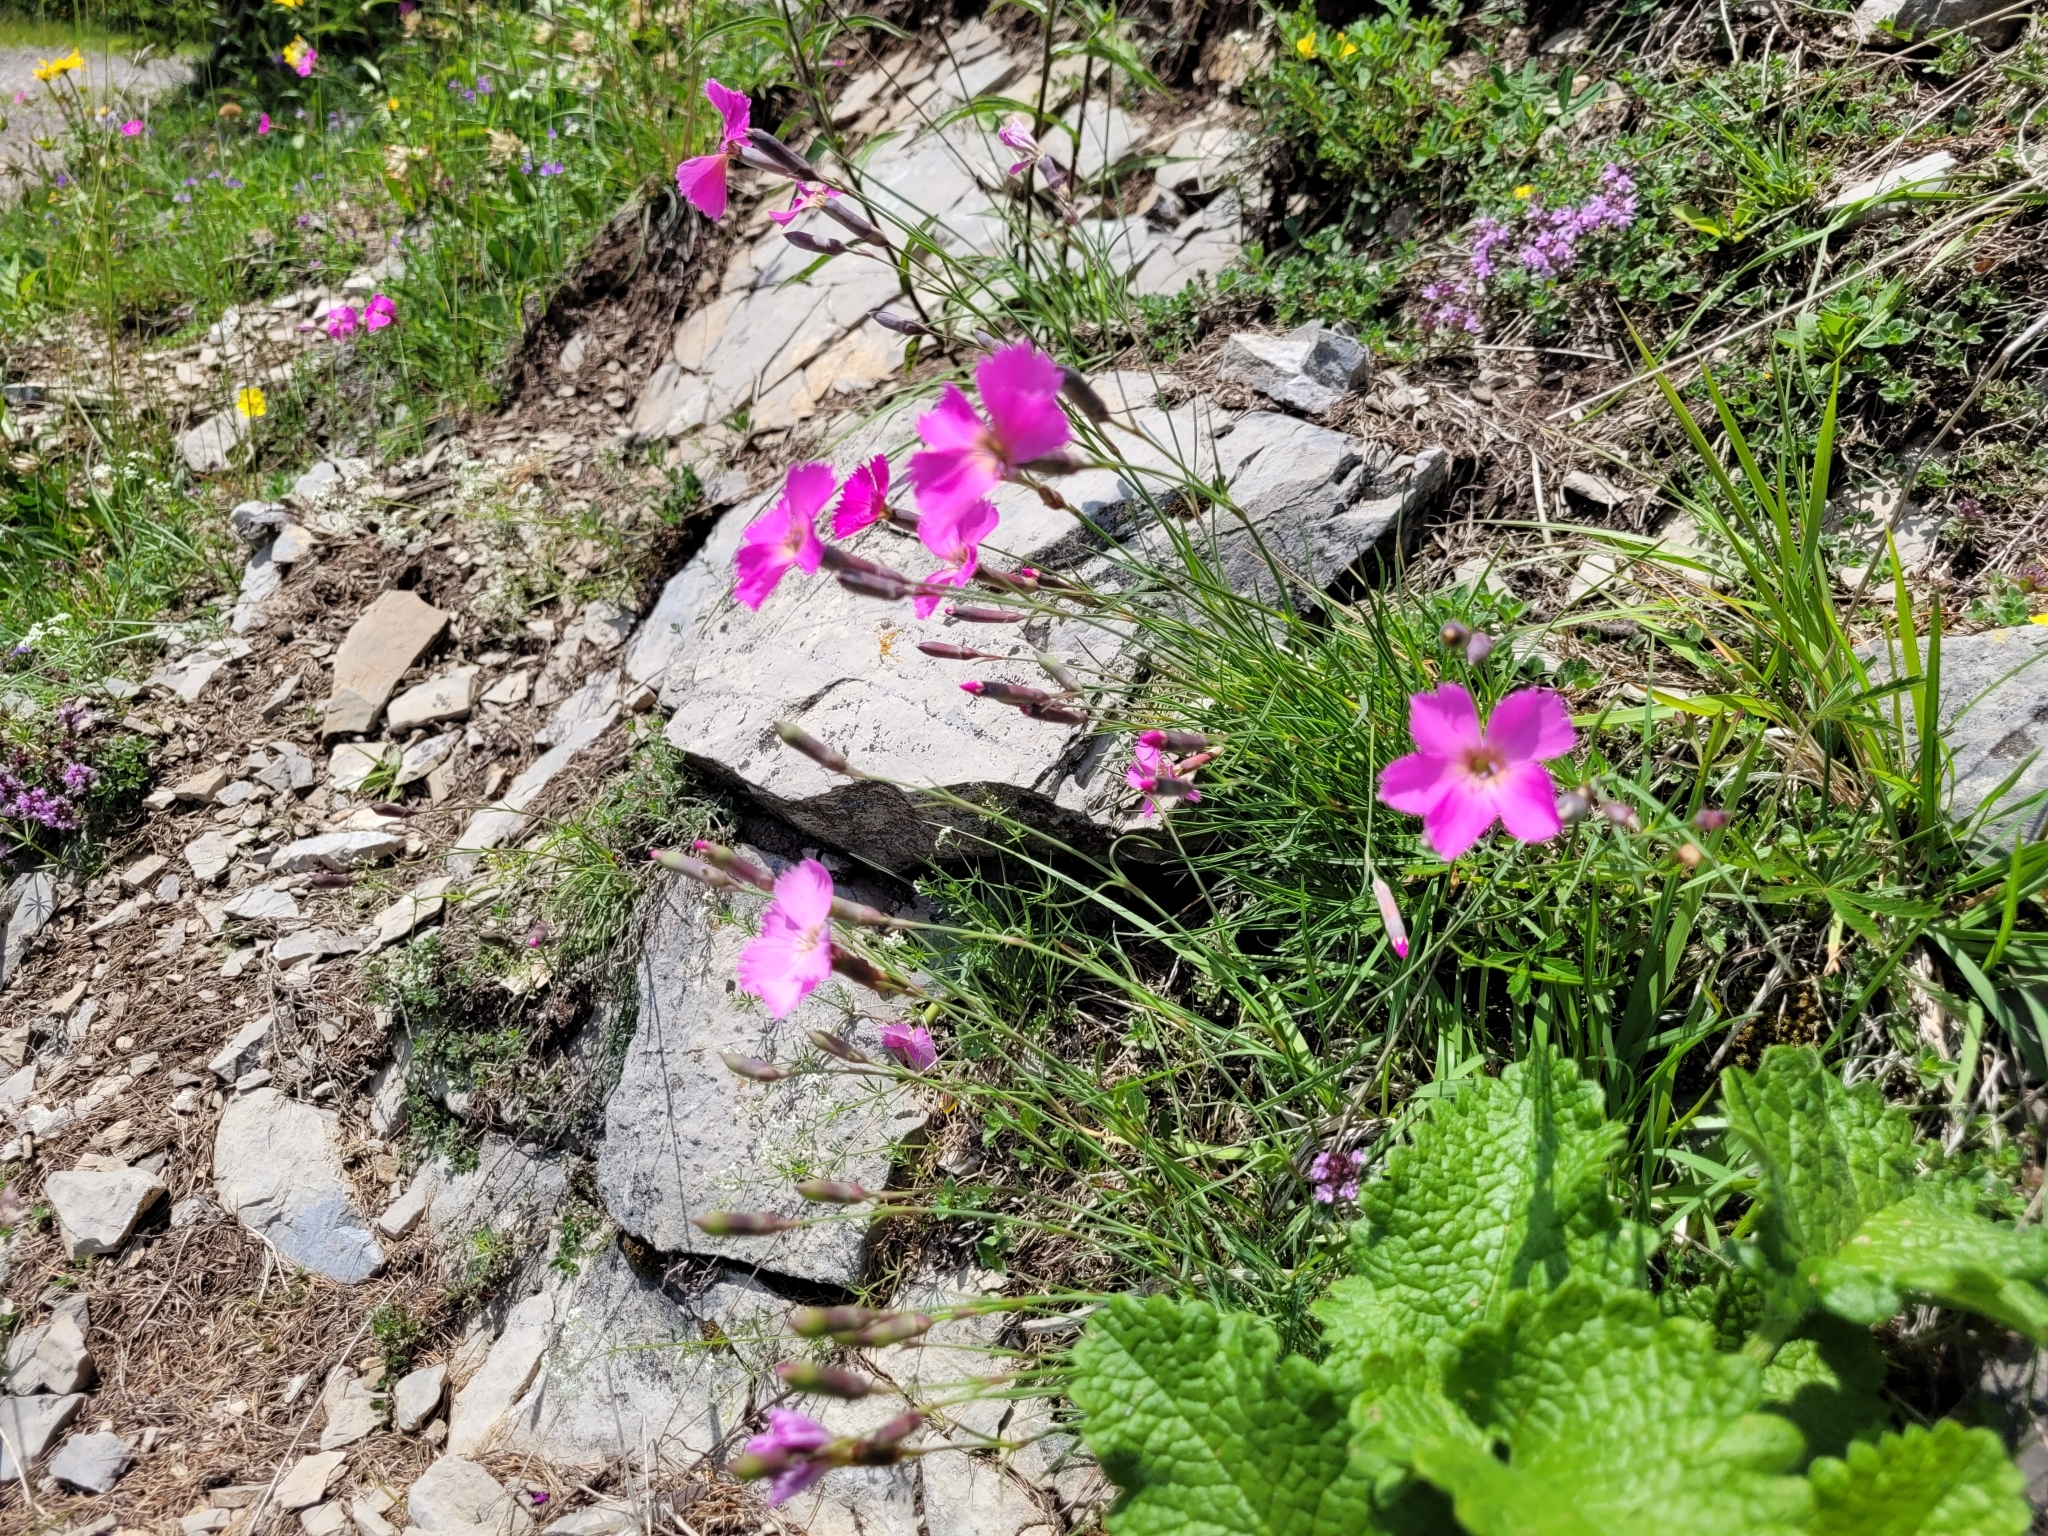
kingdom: Plantae
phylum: Tracheophyta
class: Magnoliopsida
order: Caryophyllales
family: Caryophyllaceae
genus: Dianthus
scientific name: Dianthus sylvestris
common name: Wood pink
